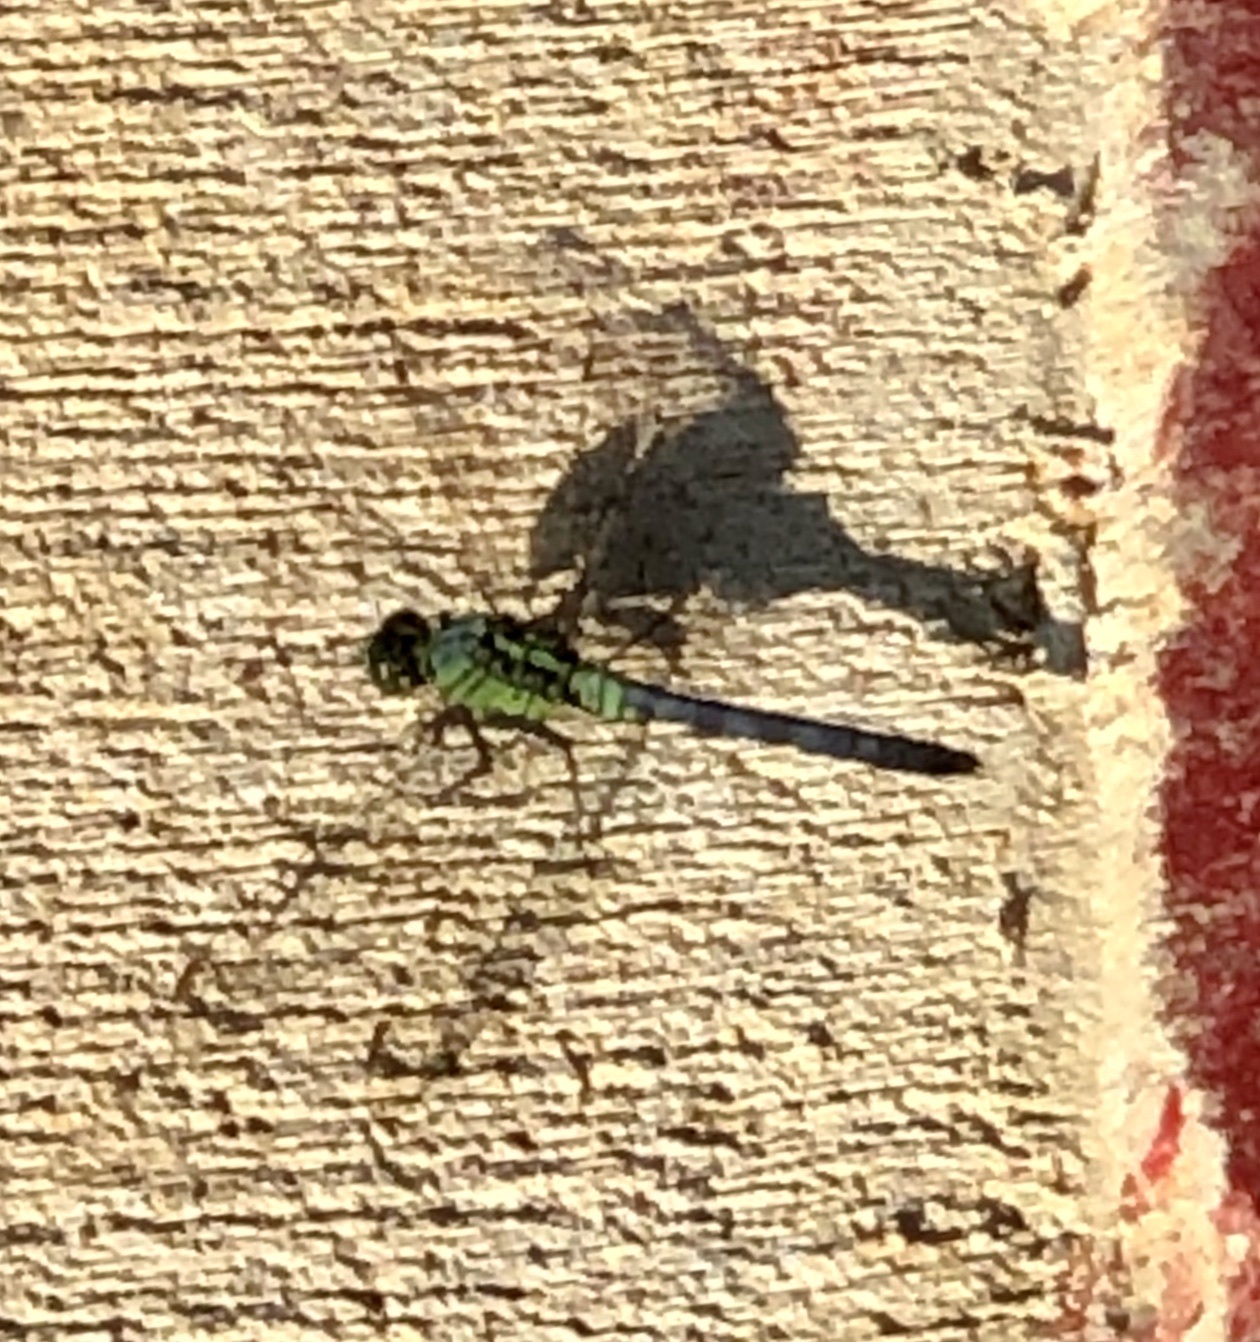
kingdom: Animalia
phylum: Arthropoda
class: Insecta
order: Odonata
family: Libellulidae
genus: Erythemis
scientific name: Erythemis simplicicollis
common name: Eastern pondhawk
